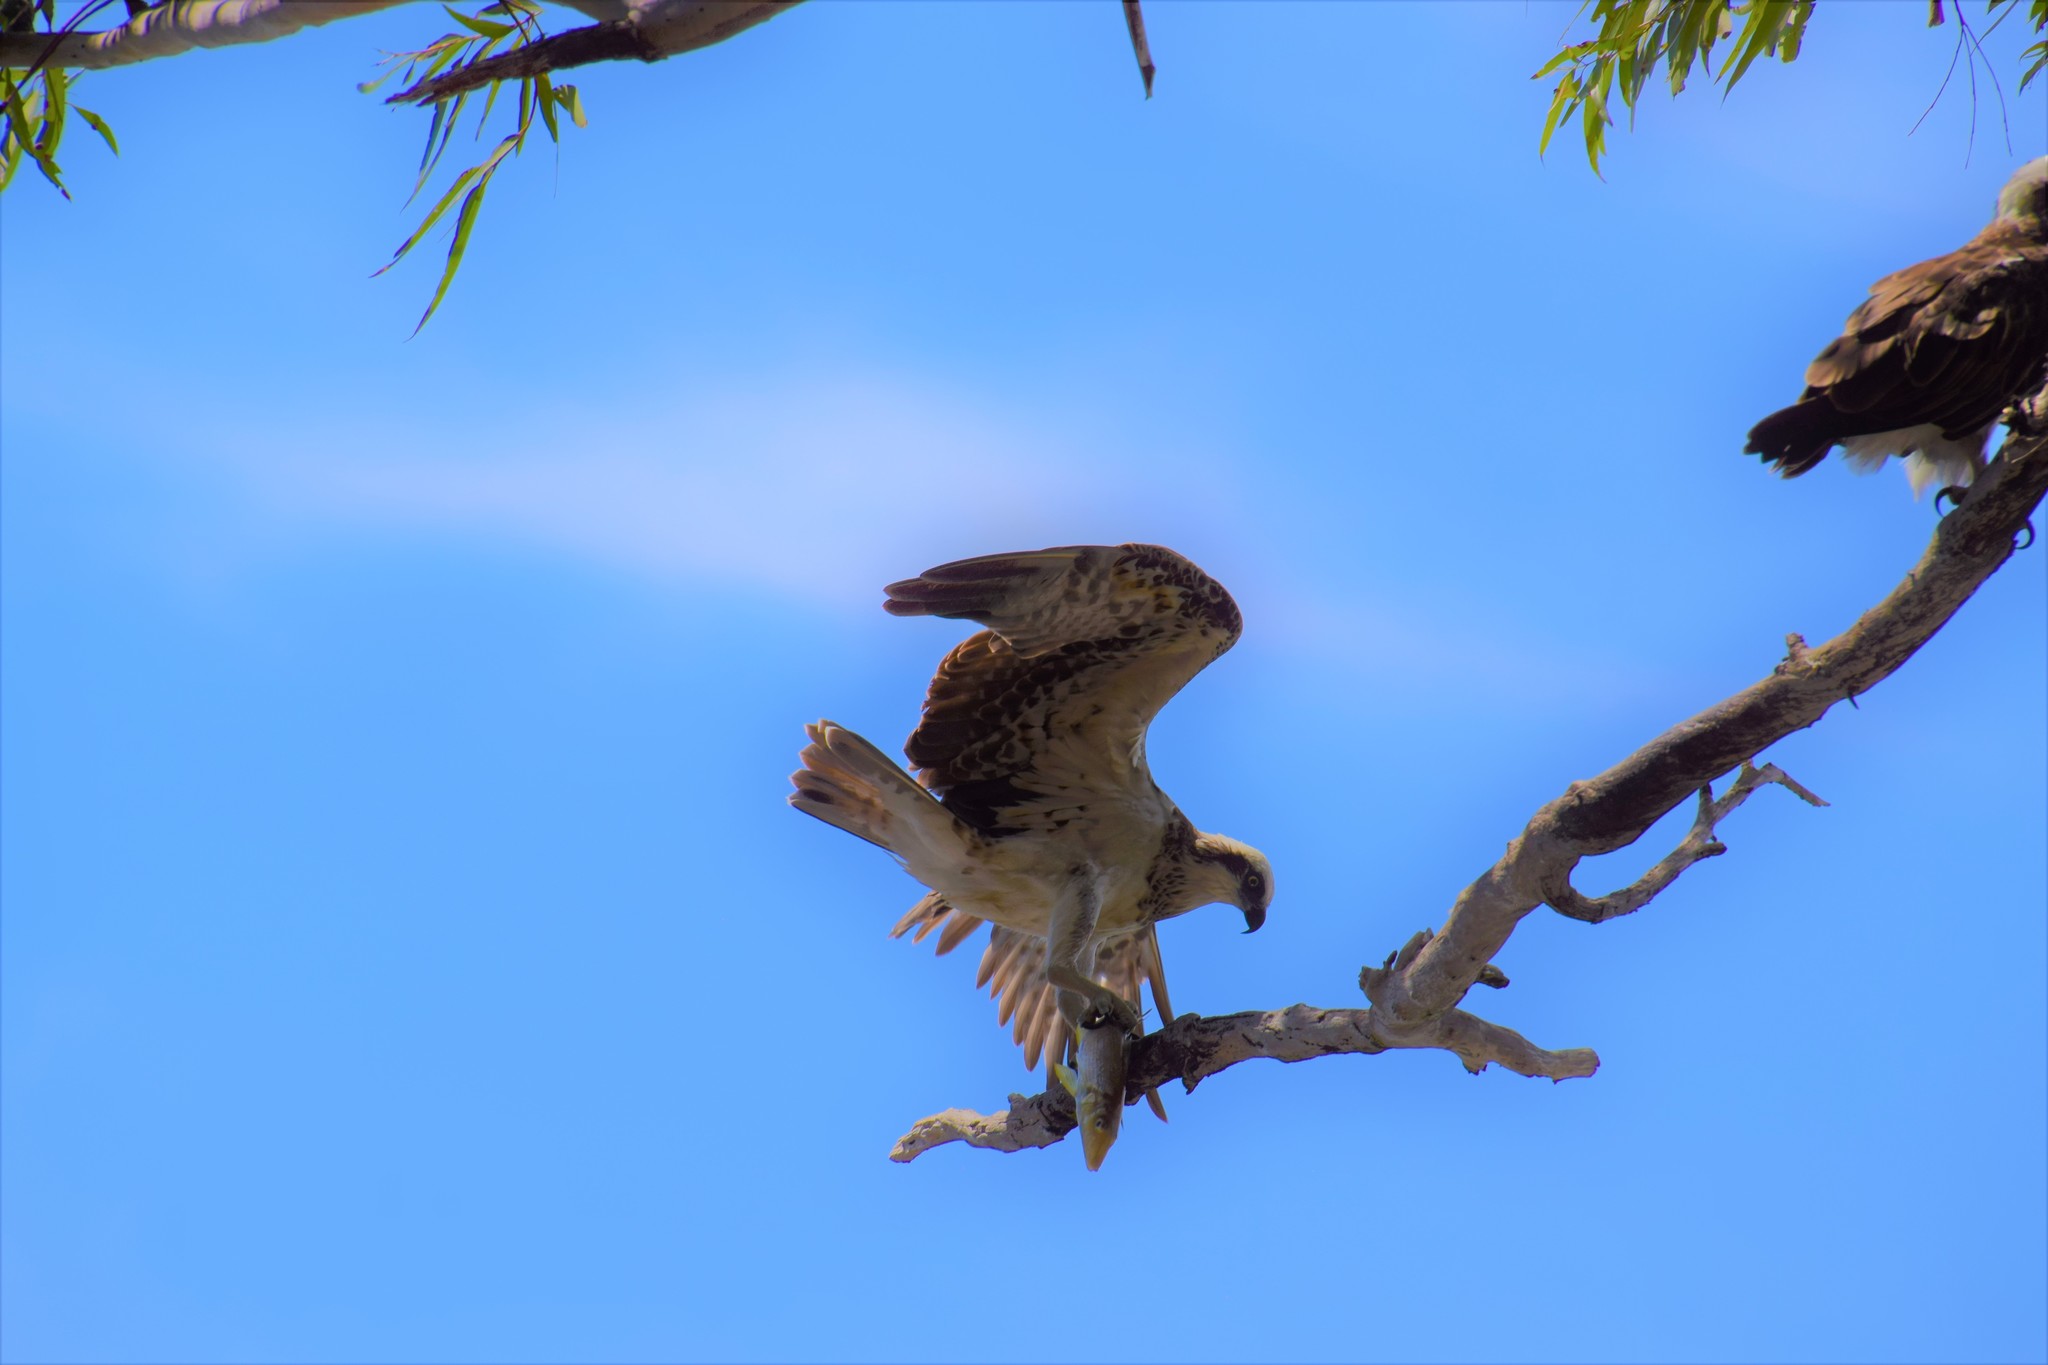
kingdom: Animalia
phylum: Chordata
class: Aves
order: Accipitriformes
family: Pandionidae
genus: Pandion
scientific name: Pandion cristatus
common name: Eastern osprey
